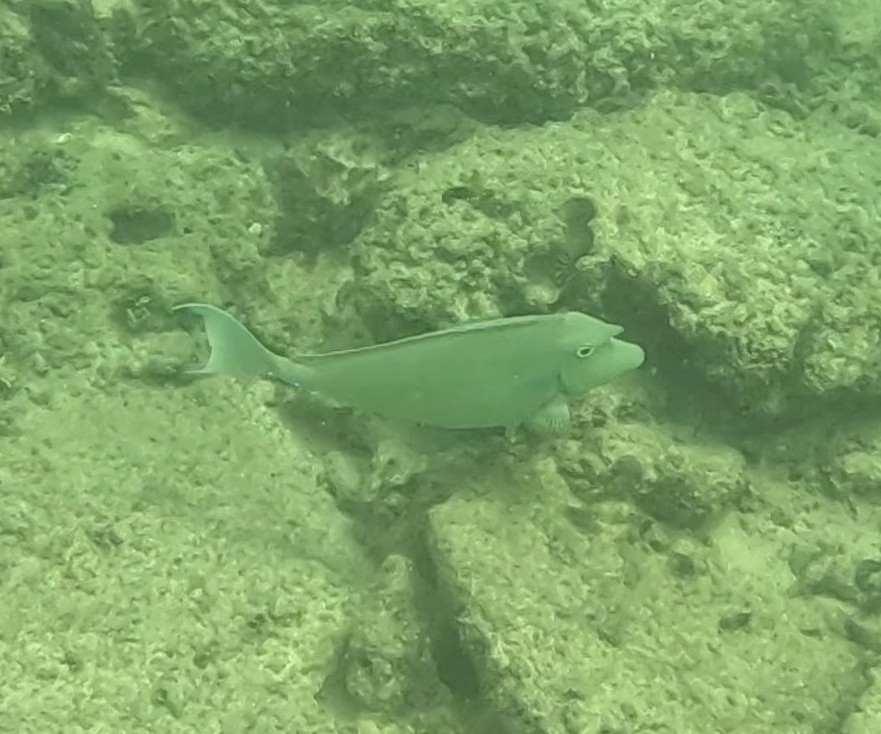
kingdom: Animalia
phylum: Chordata
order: Perciformes
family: Acanthuridae
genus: Naso
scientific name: Naso unicornis
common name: Bluespine unicornfish
